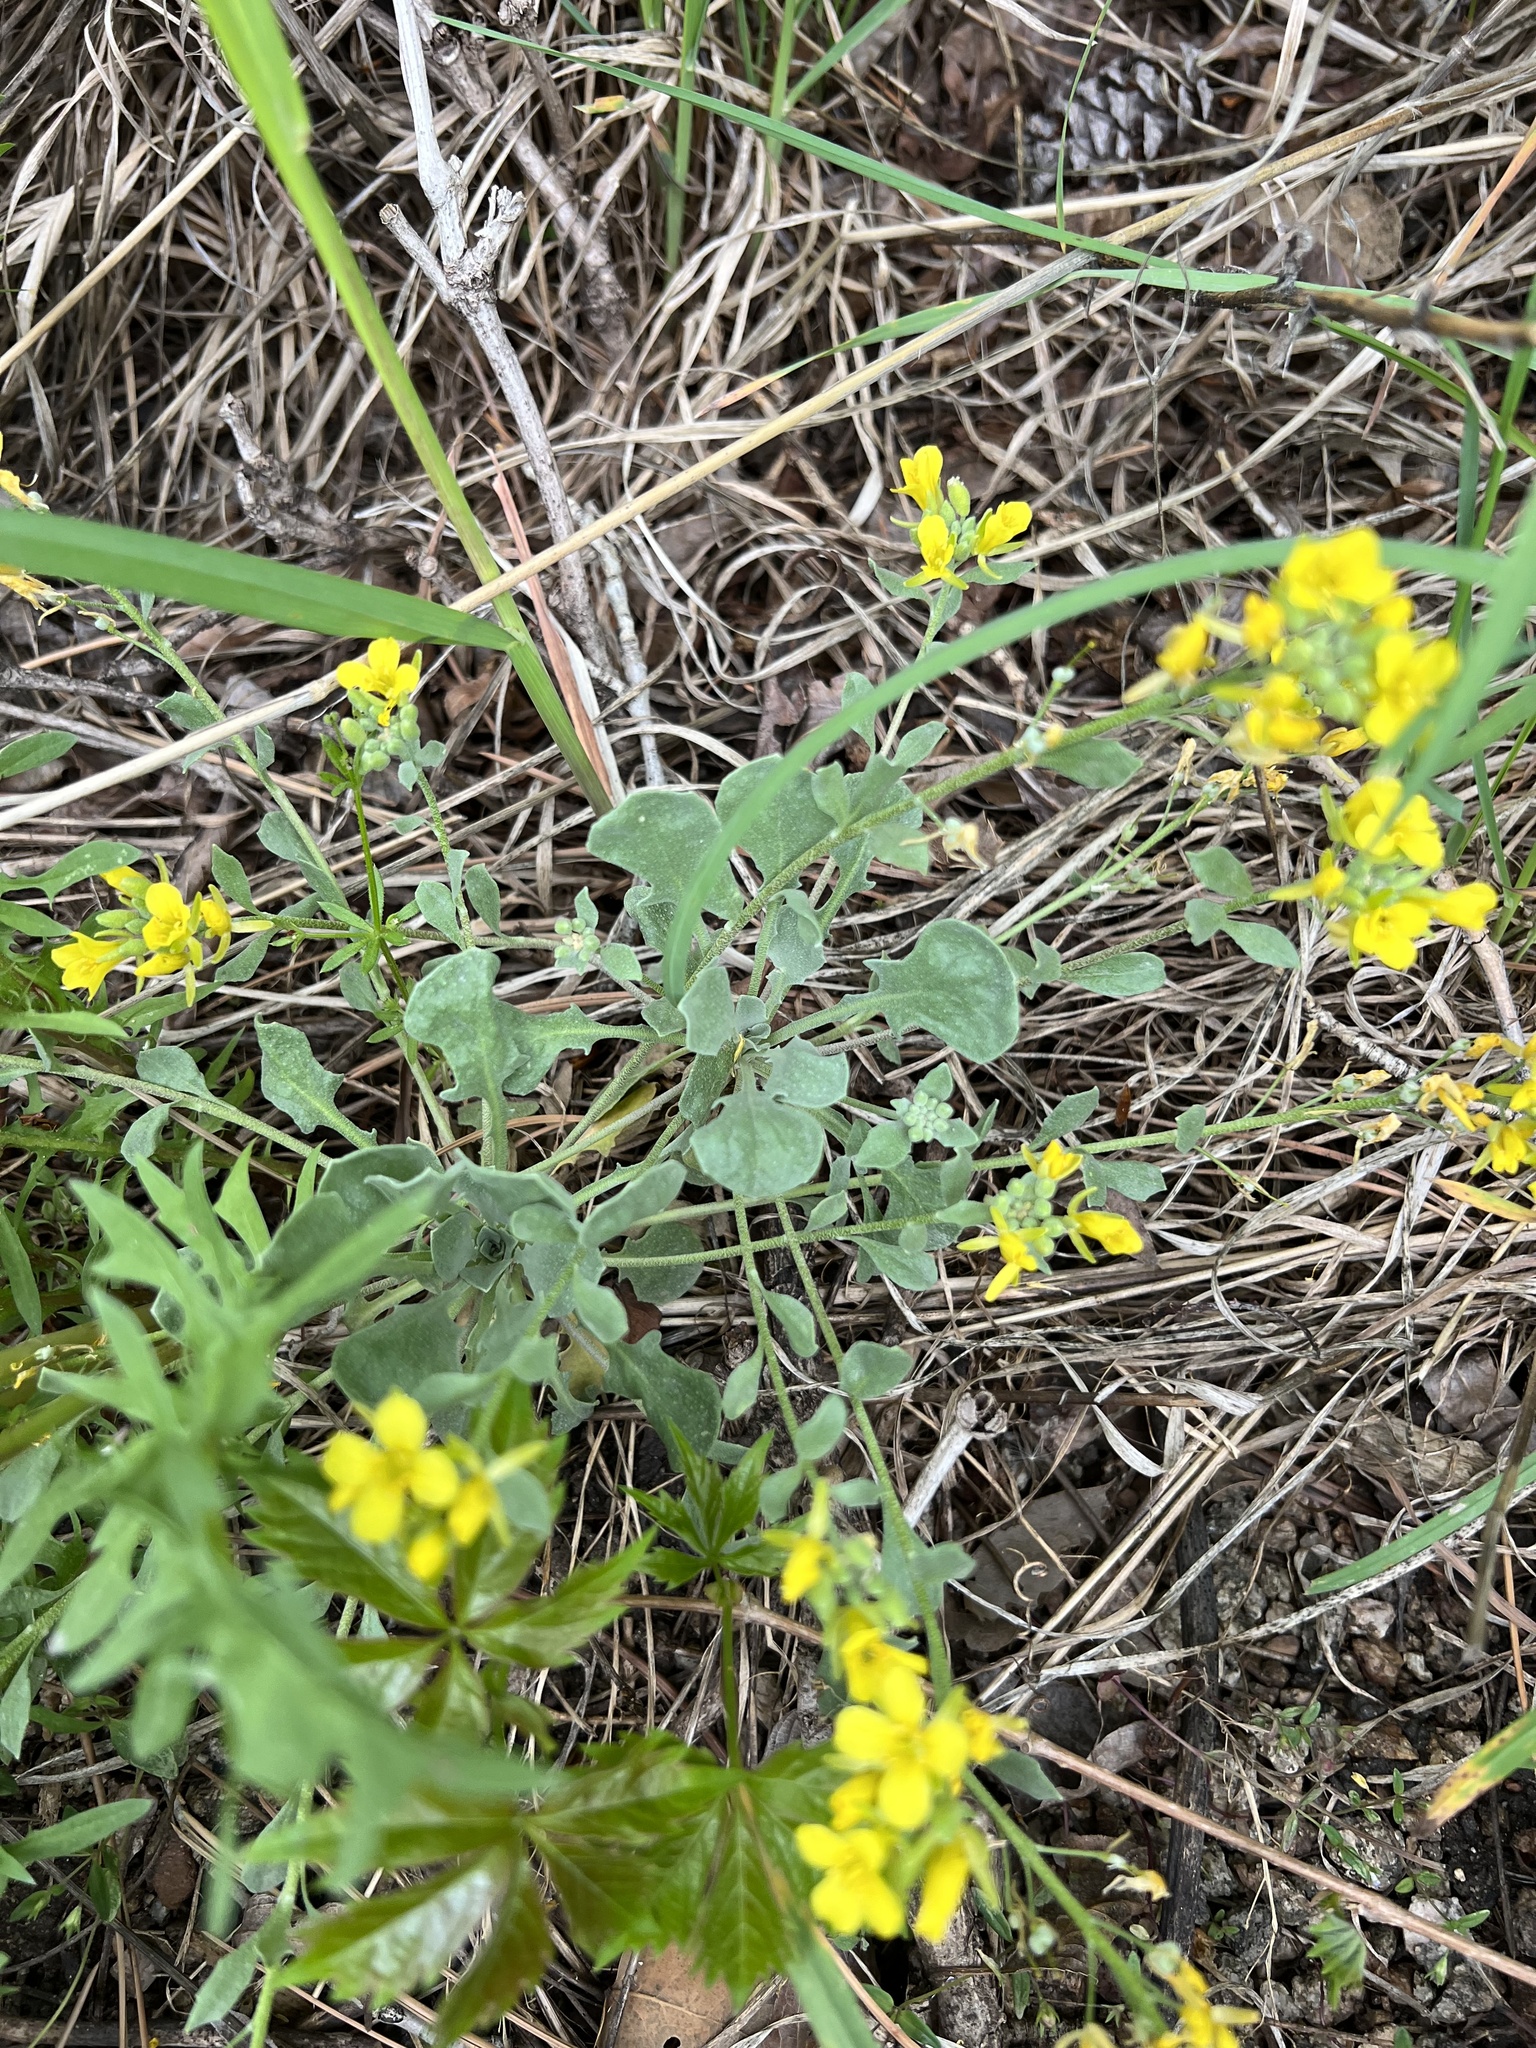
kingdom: Plantae
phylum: Tracheophyta
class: Magnoliopsida
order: Brassicales
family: Brassicaceae
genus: Physaria
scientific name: Physaria vitulifera
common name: Roundtrip twinpod
